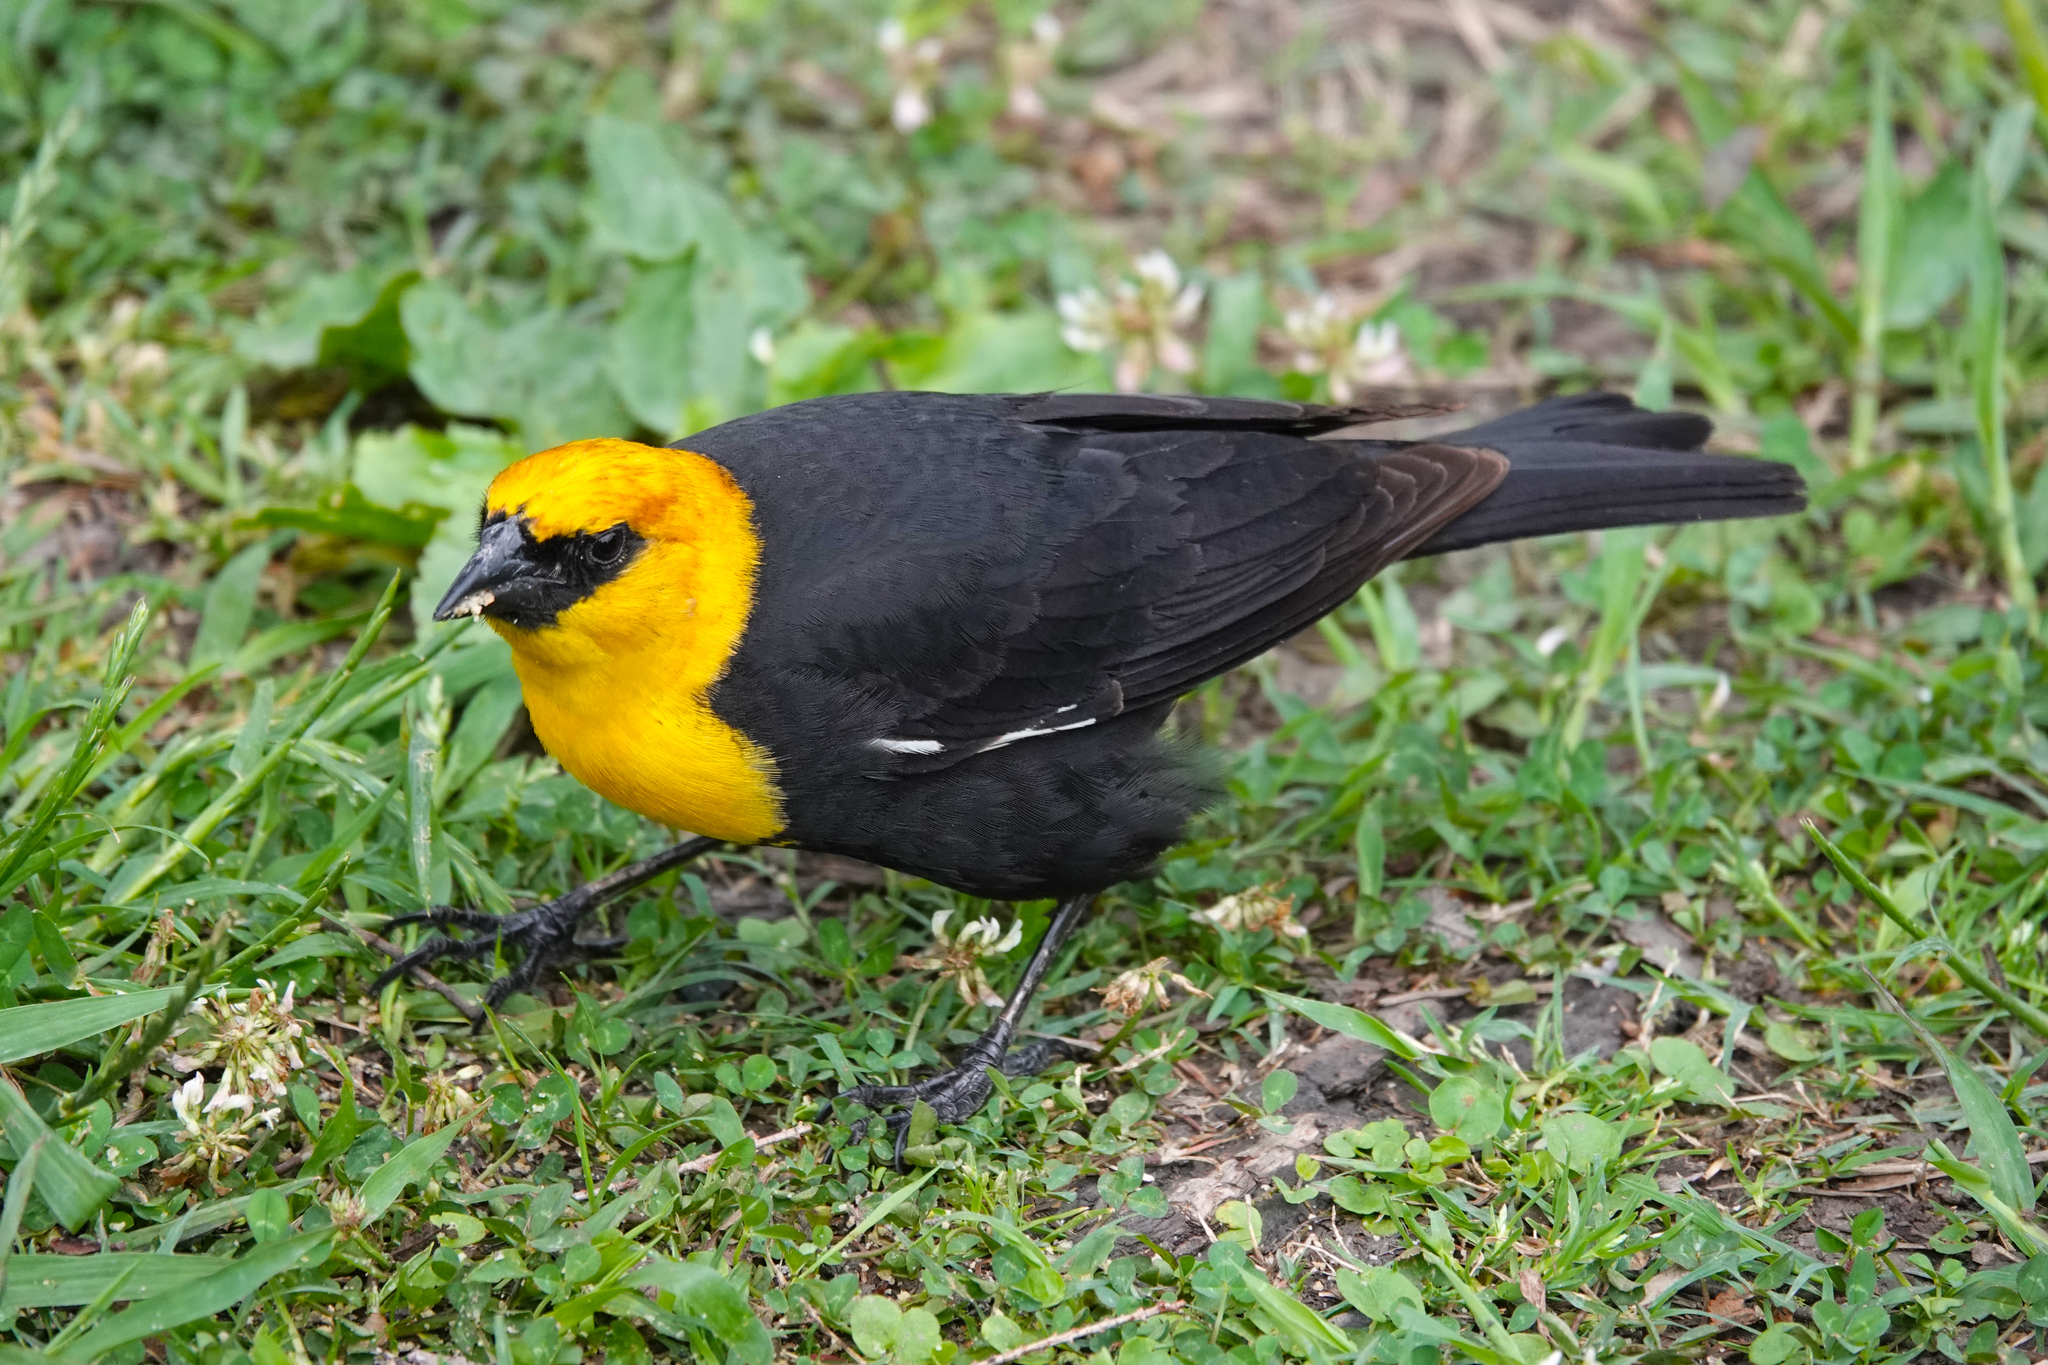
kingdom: Animalia
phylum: Chordata
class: Aves
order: Passeriformes
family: Icteridae
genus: Xanthocephalus
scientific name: Xanthocephalus xanthocephalus
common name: Yellow-headed blackbird
